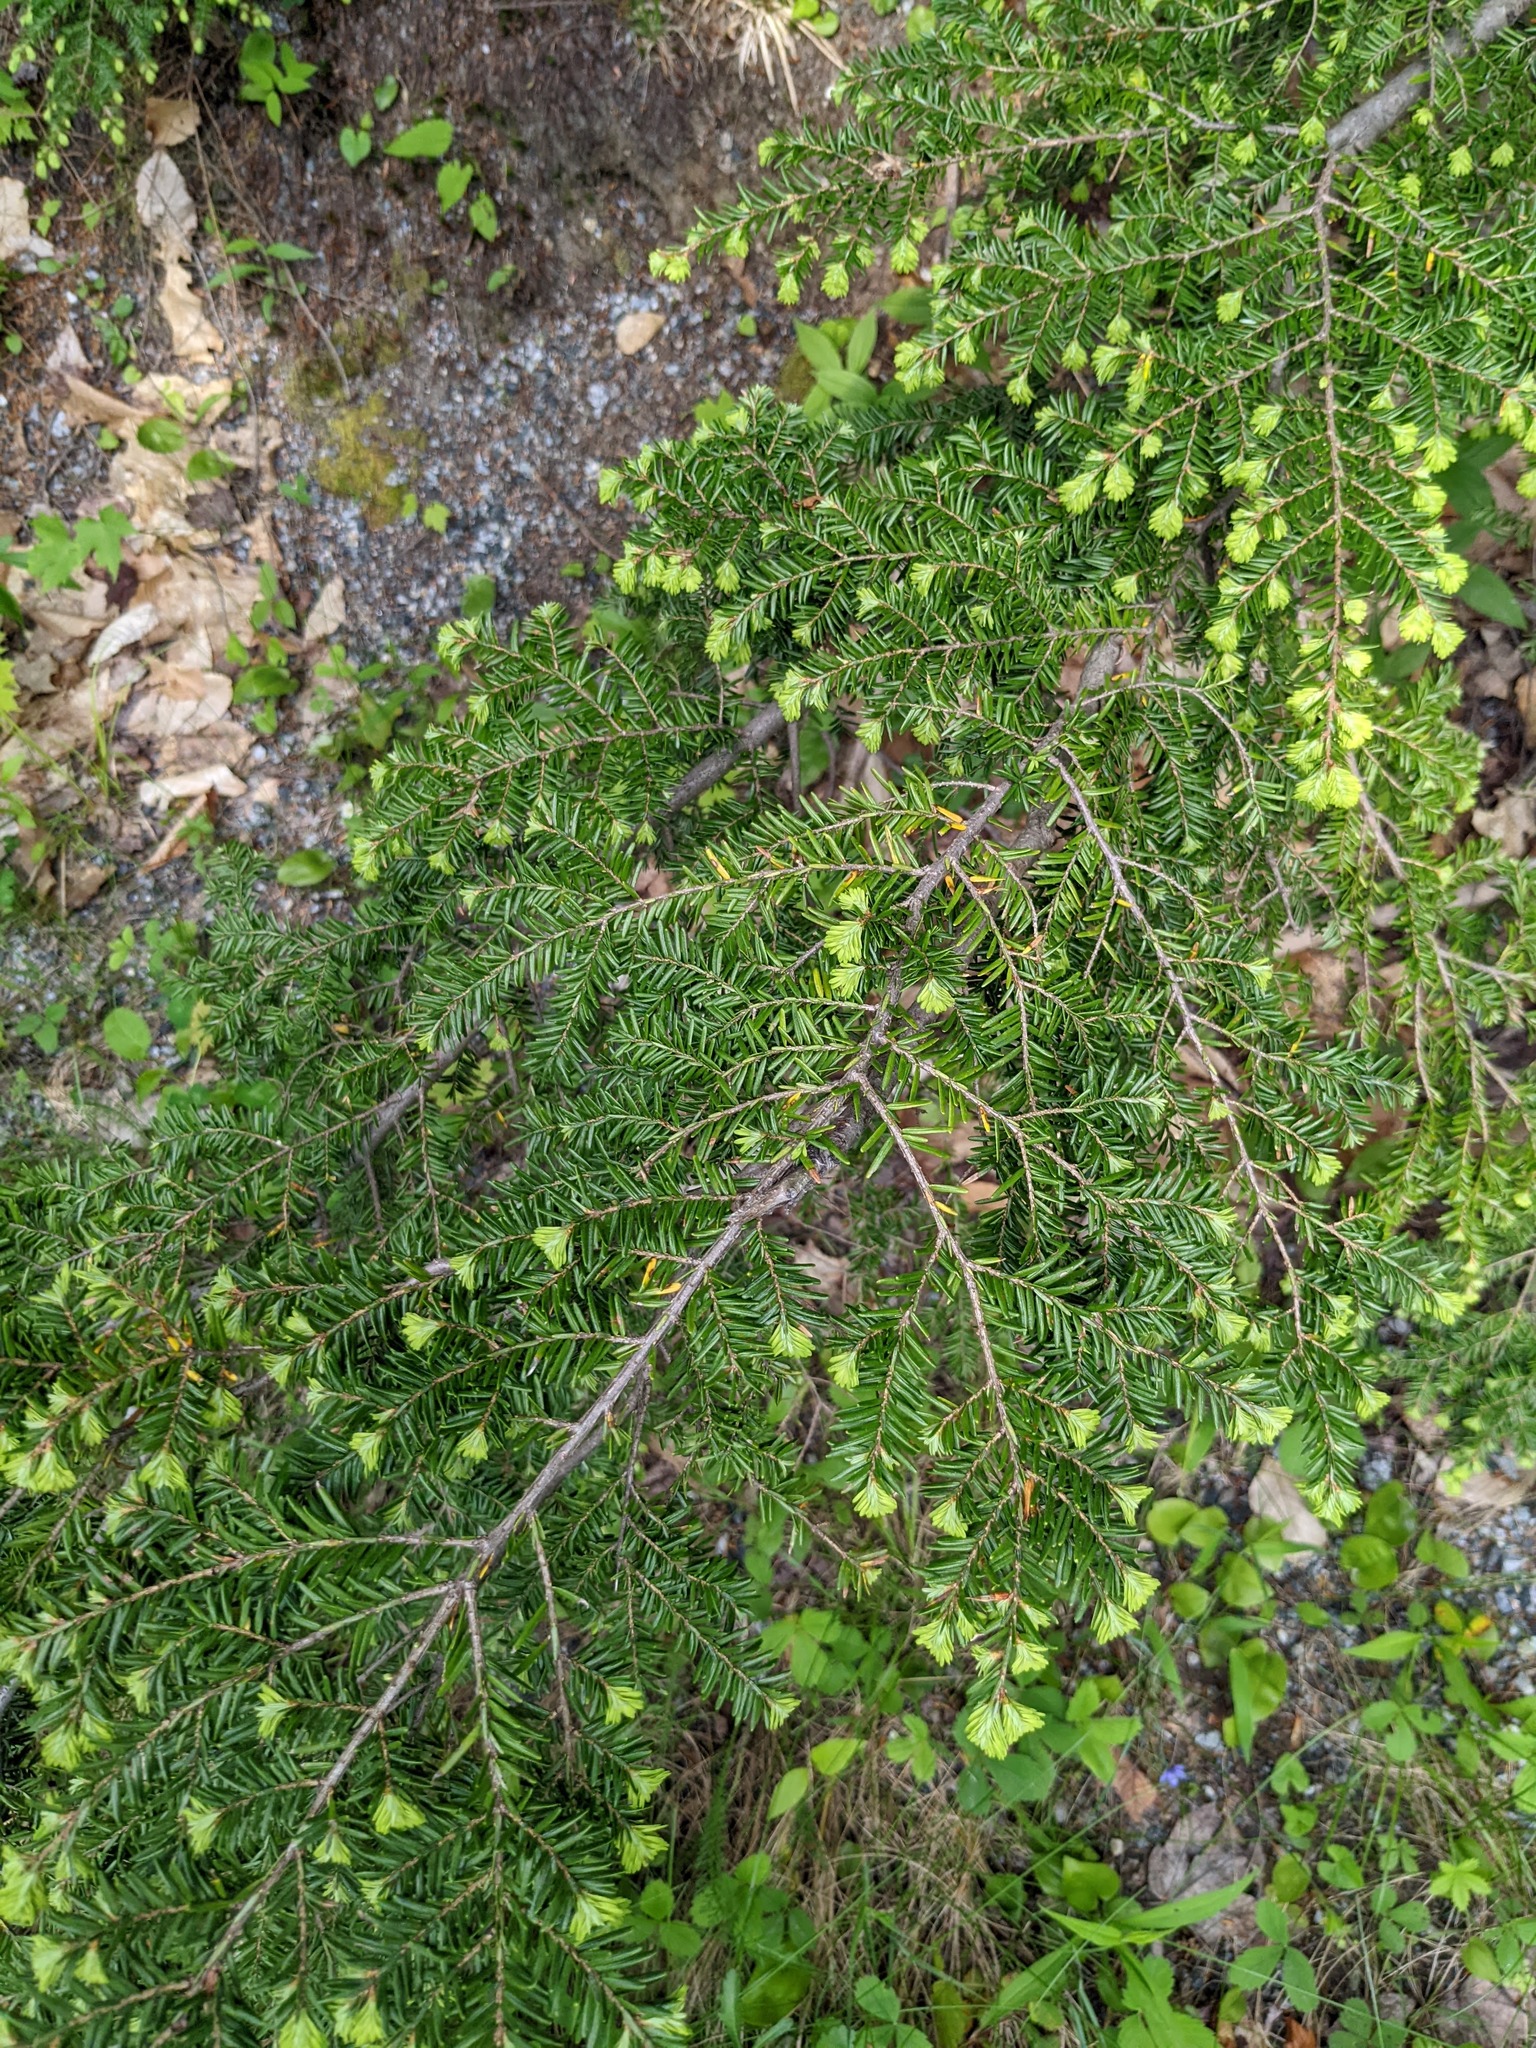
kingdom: Plantae
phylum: Tracheophyta
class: Pinopsida
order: Pinales
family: Pinaceae
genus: Tsuga
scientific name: Tsuga canadensis
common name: Eastern hemlock
